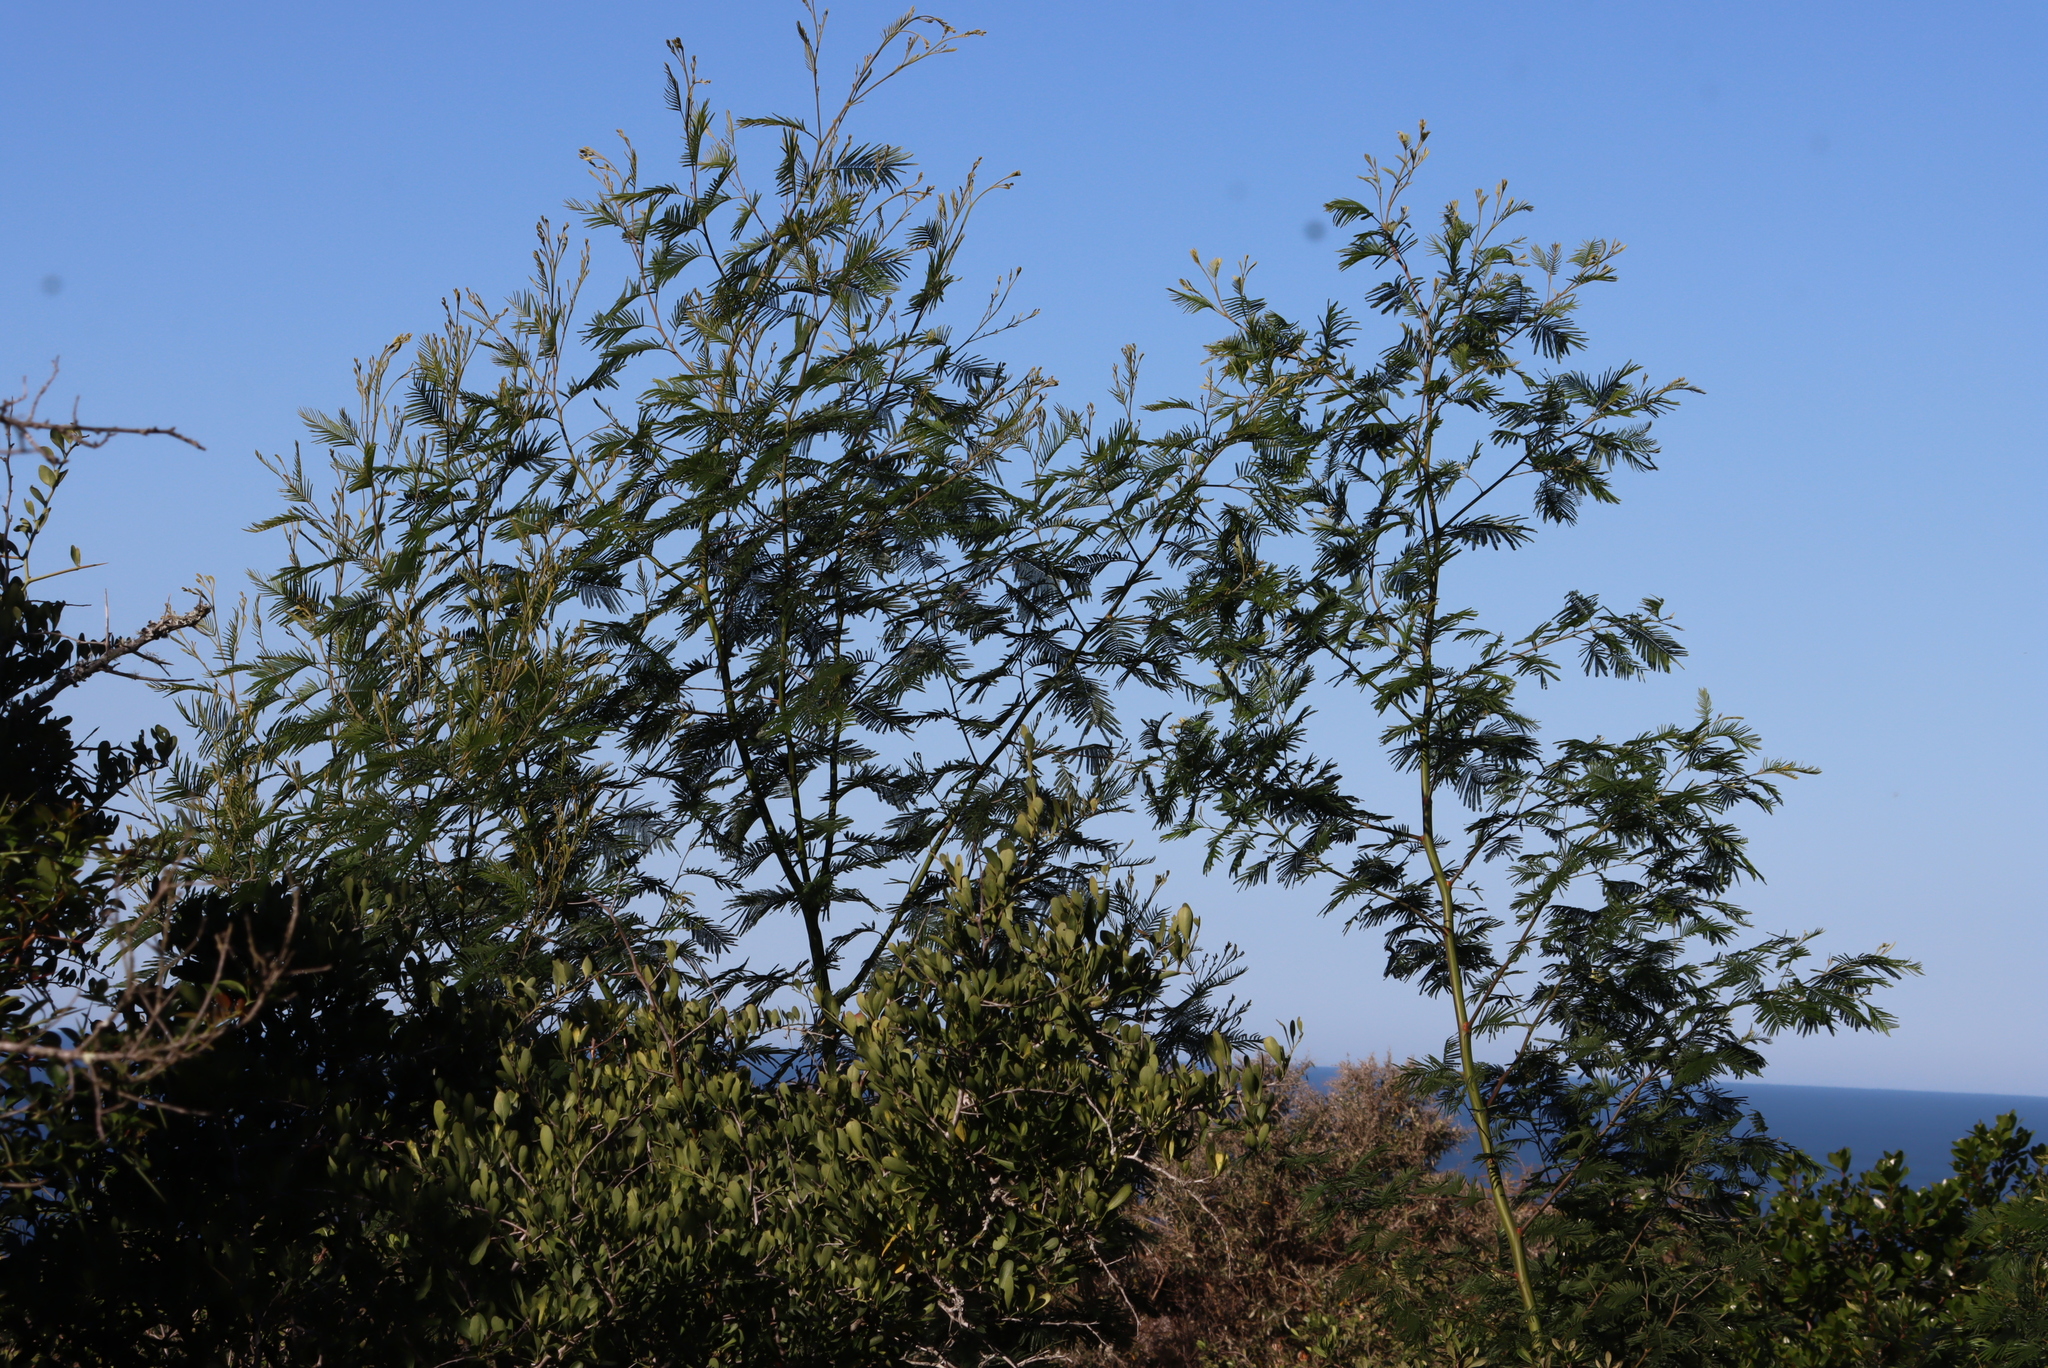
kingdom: Plantae
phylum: Tracheophyta
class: Magnoliopsida
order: Fabales
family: Fabaceae
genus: Acacia
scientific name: Acacia mearnsii
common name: Black wattle
